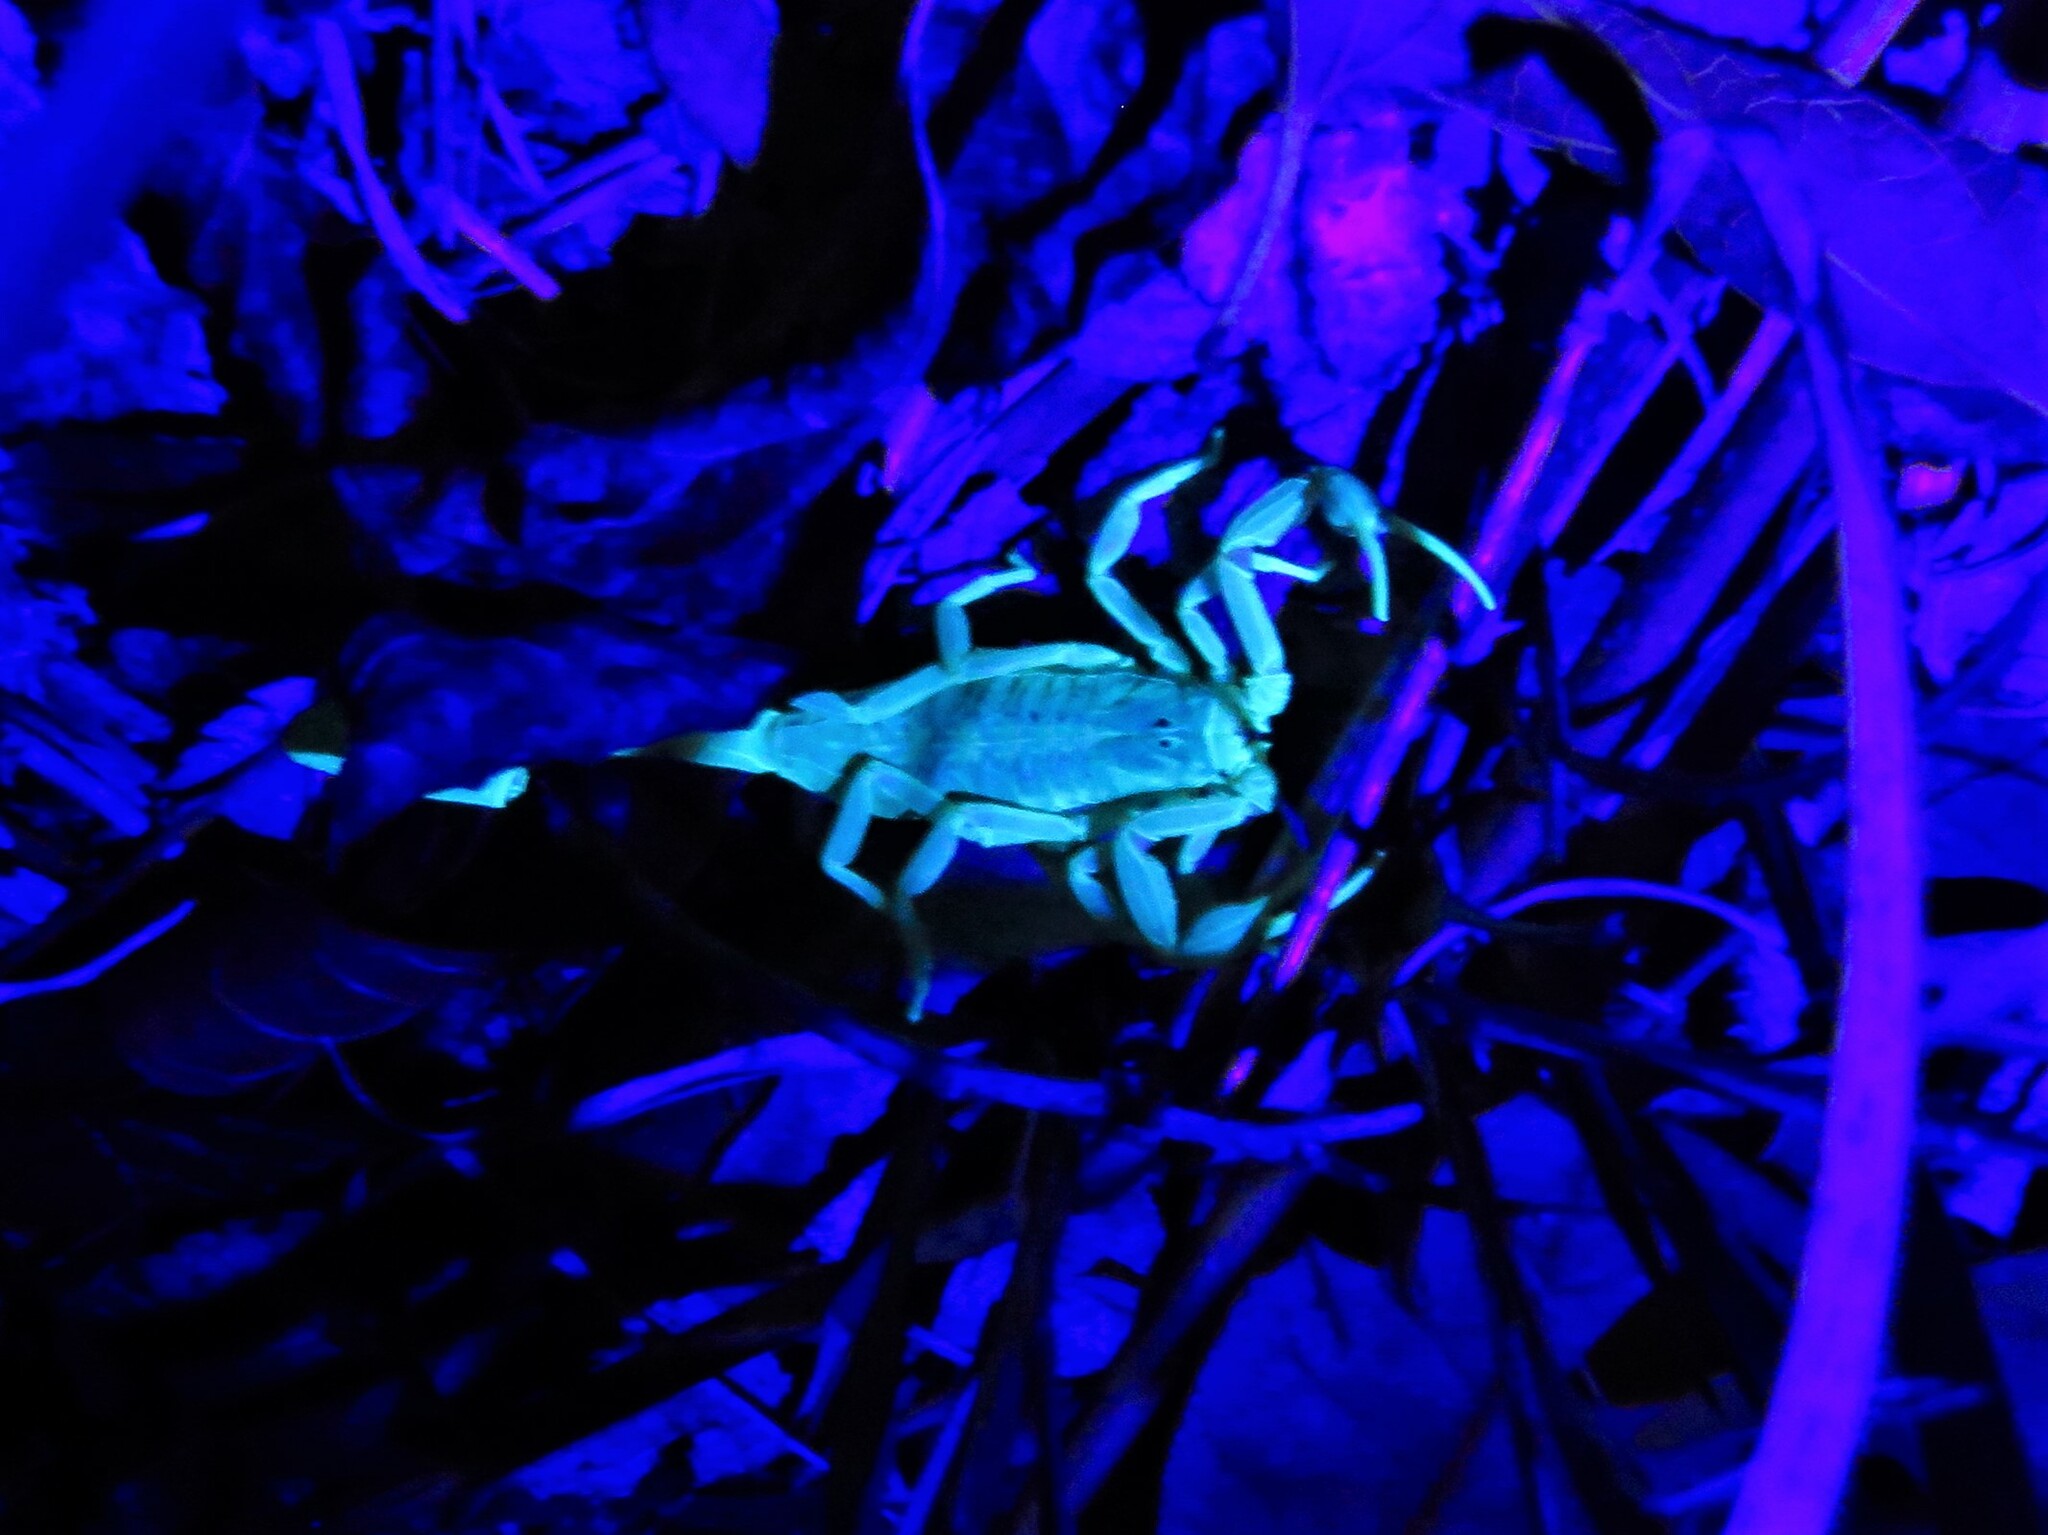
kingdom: Animalia
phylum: Arthropoda
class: Arachnida
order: Scorpiones
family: Buthidae
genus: Centruroides
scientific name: Centruroides vittatus
